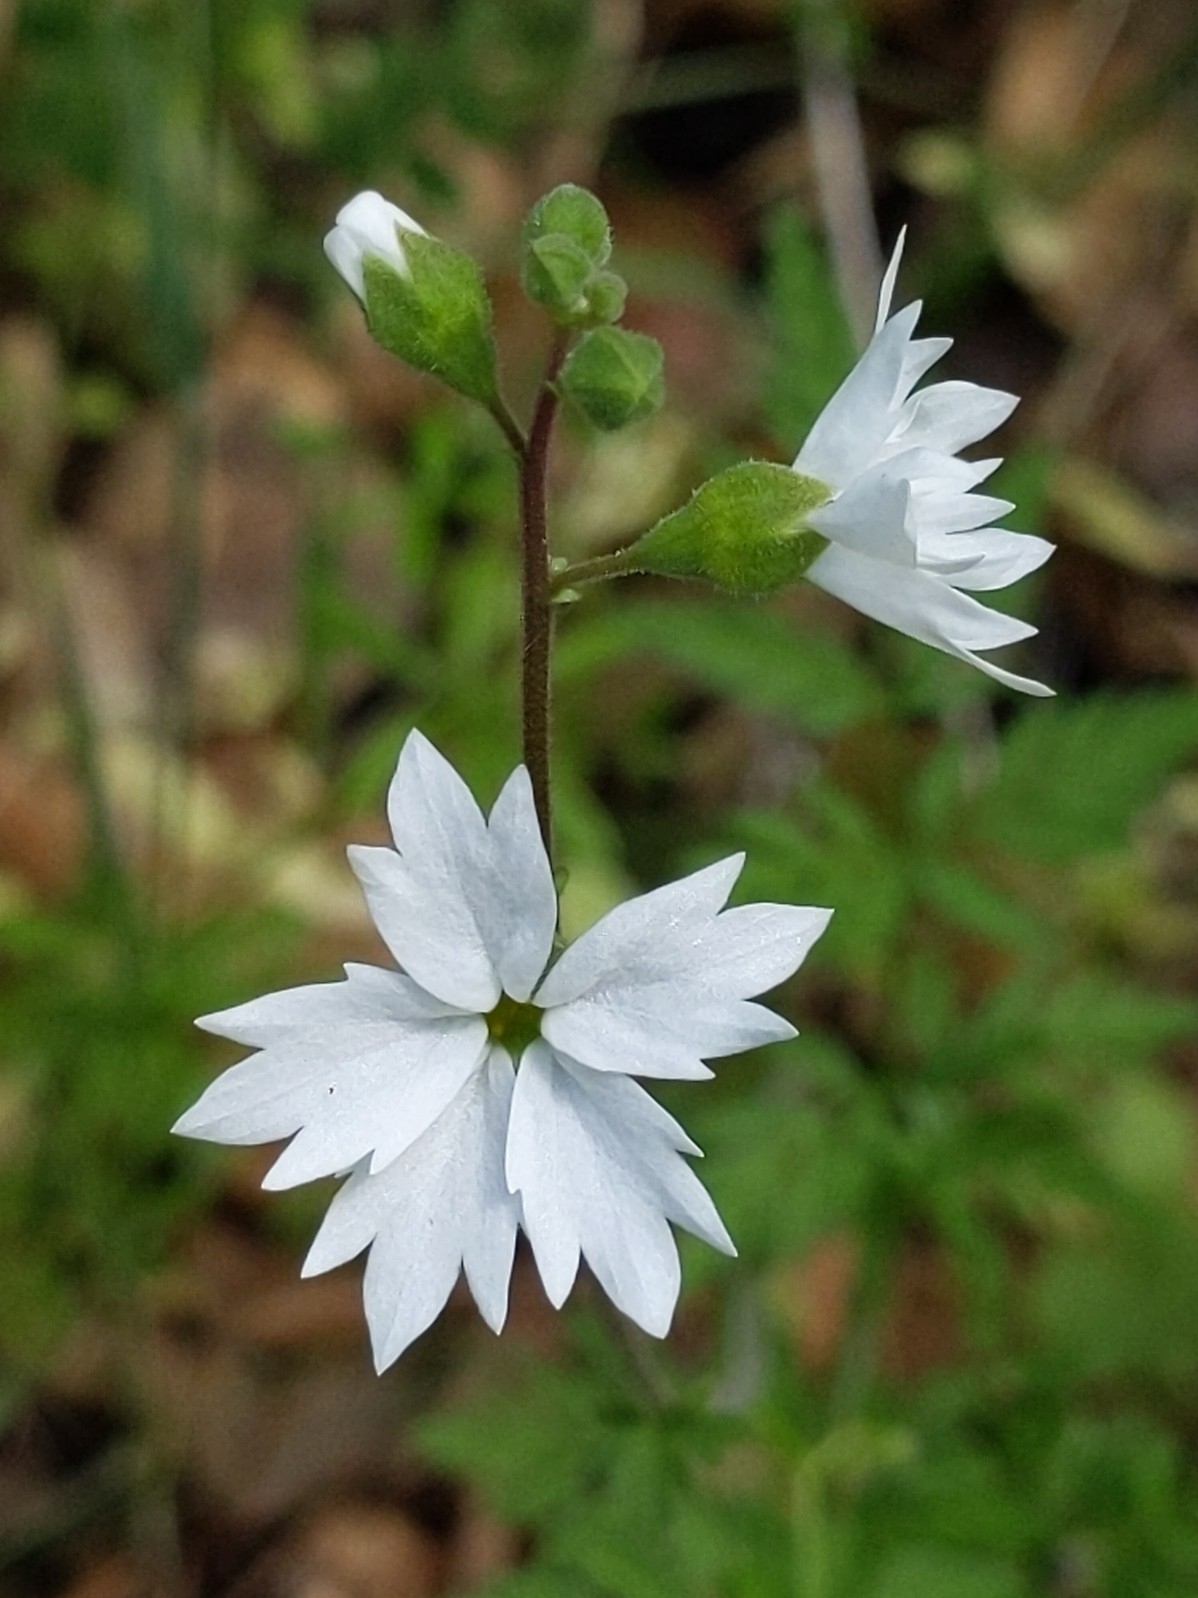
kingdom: Plantae
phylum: Tracheophyta
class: Magnoliopsida
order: Saxifragales
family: Saxifragaceae
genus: Lithophragma
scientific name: Lithophragma affine
